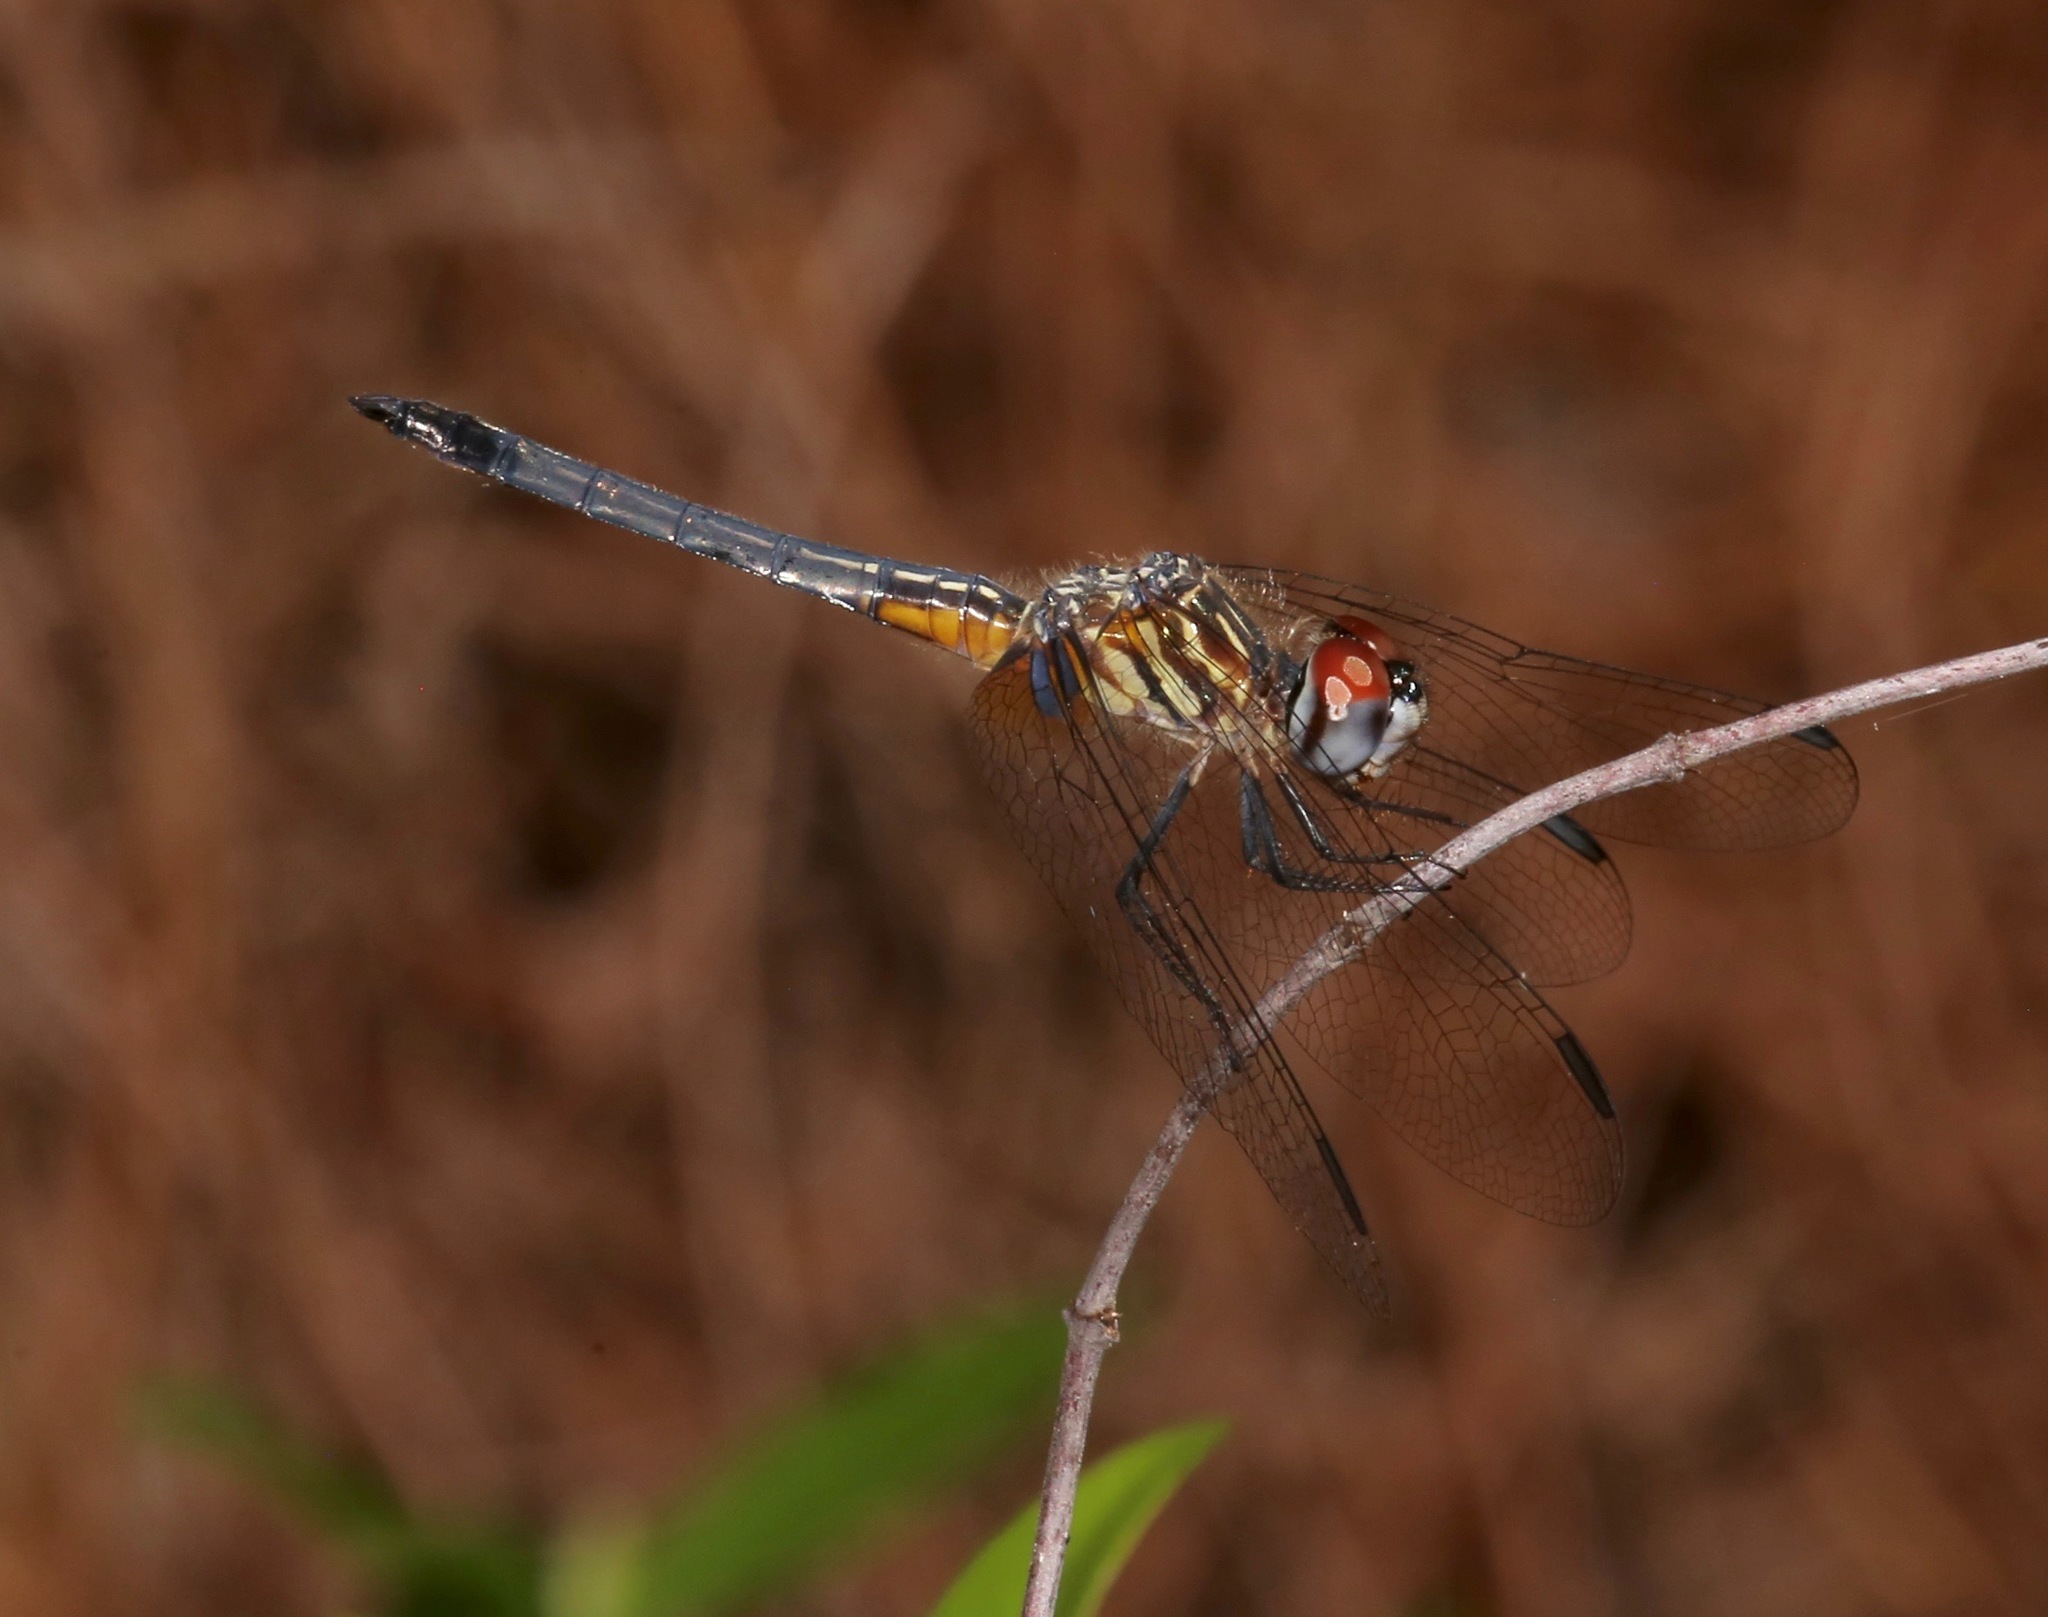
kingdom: Animalia
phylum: Arthropoda
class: Insecta
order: Odonata
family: Libellulidae
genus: Pachydiplax
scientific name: Pachydiplax longipennis
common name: Blue dasher
